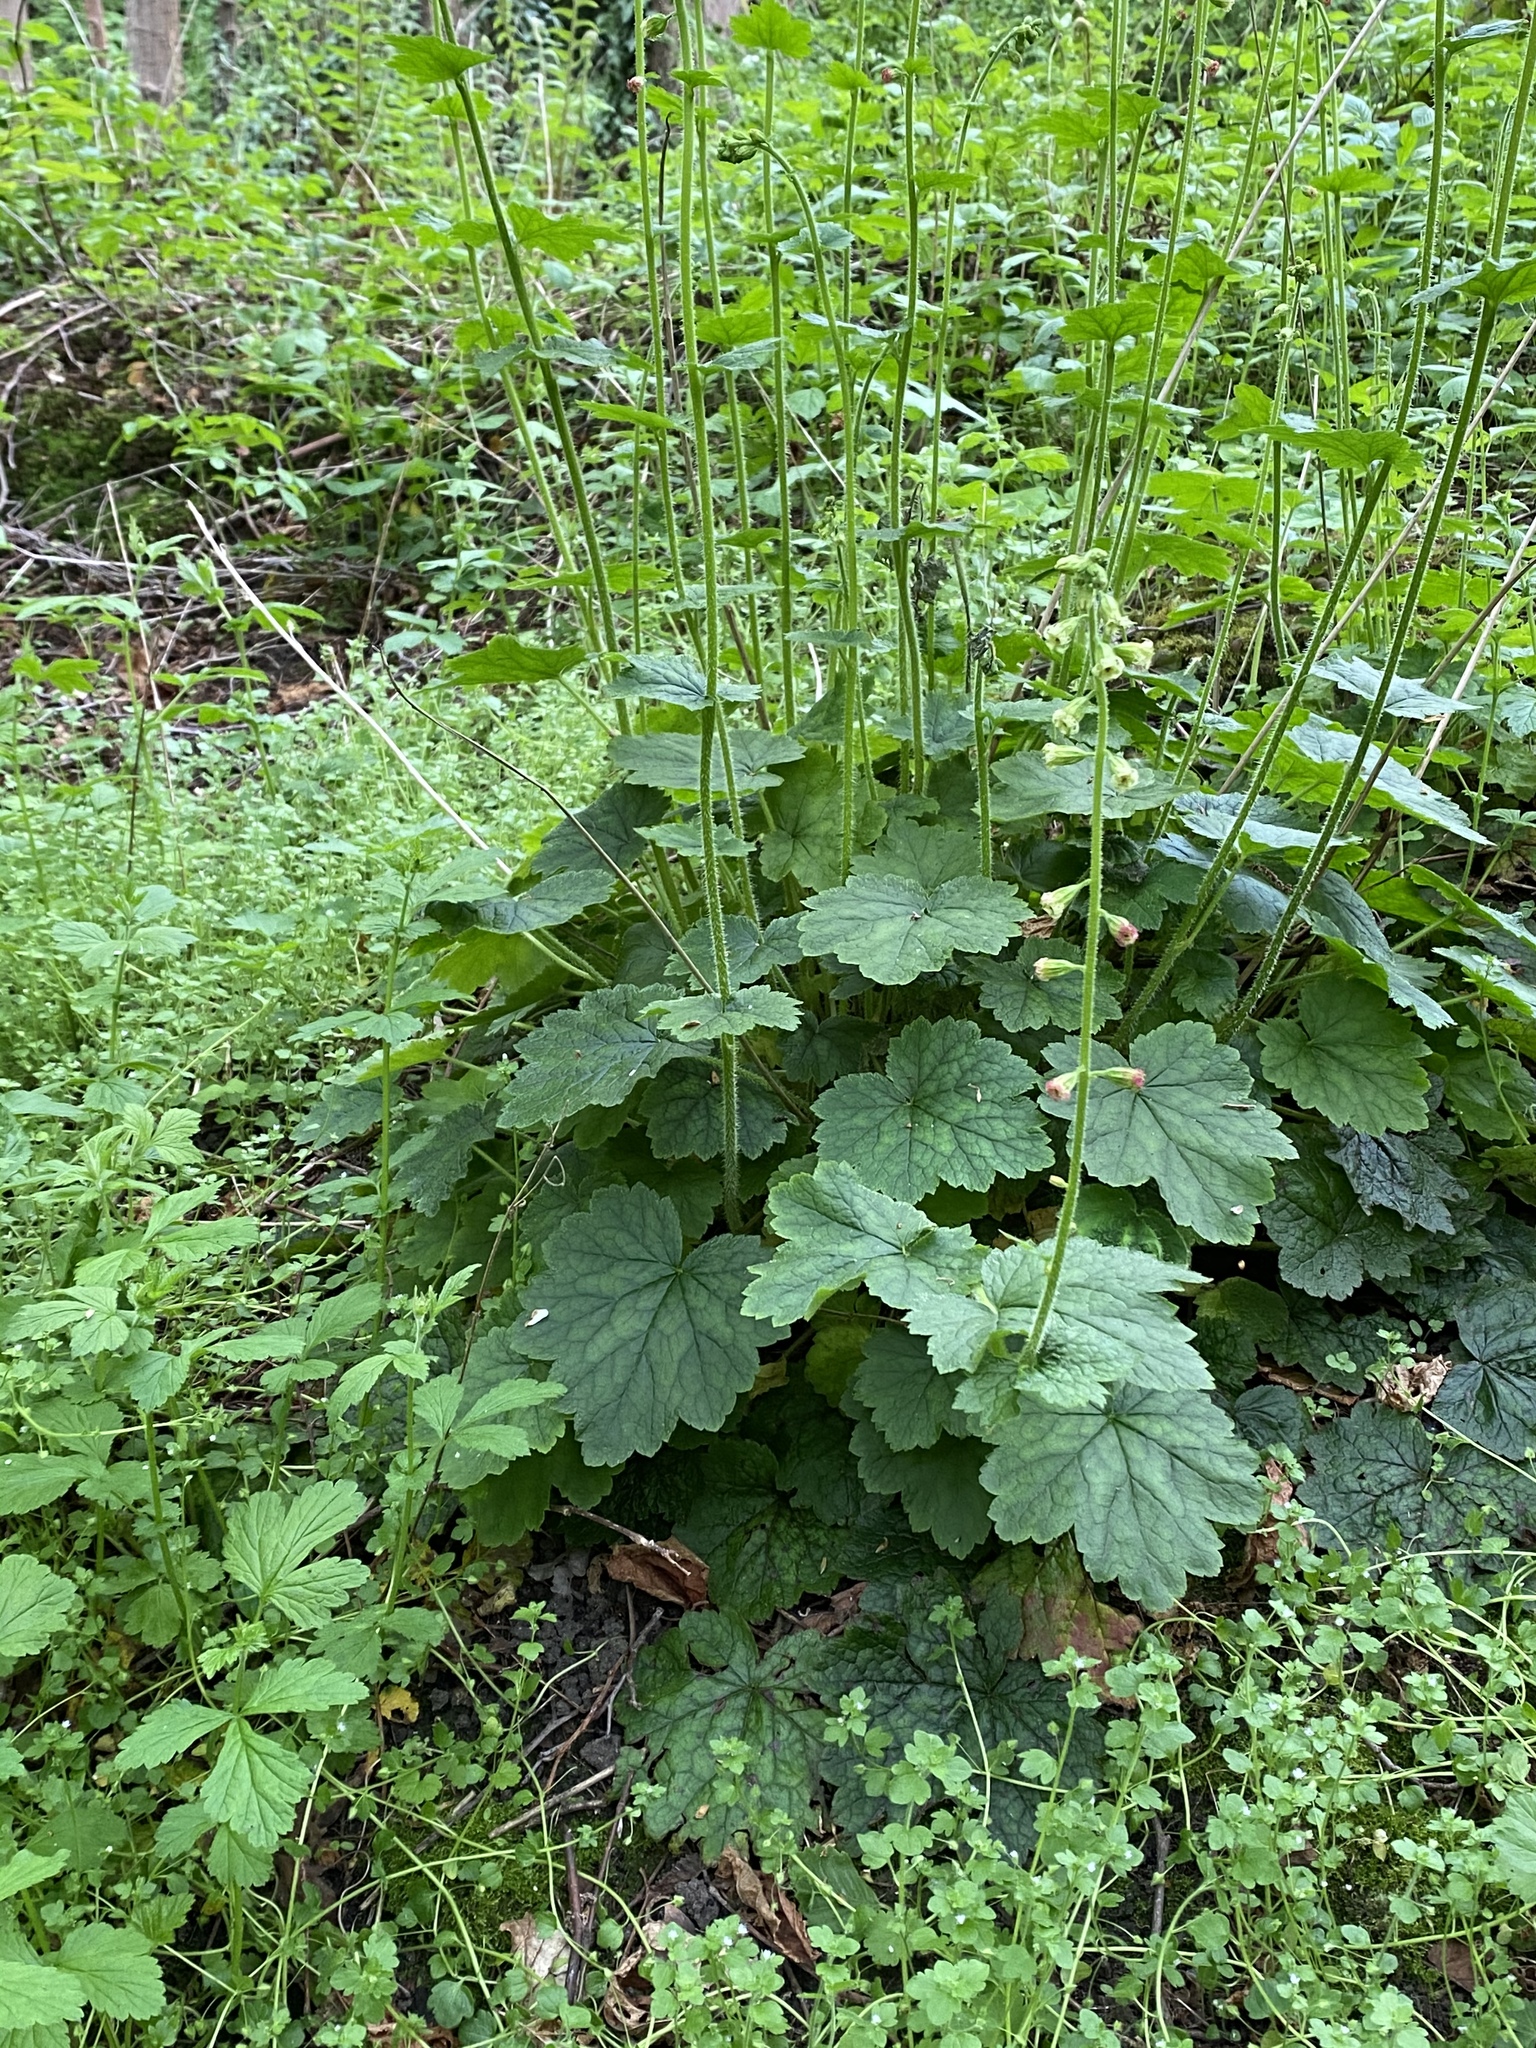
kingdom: Plantae
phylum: Tracheophyta
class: Magnoliopsida
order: Saxifragales
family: Saxifragaceae
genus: Tellima
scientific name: Tellima grandiflora
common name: Fringecups
